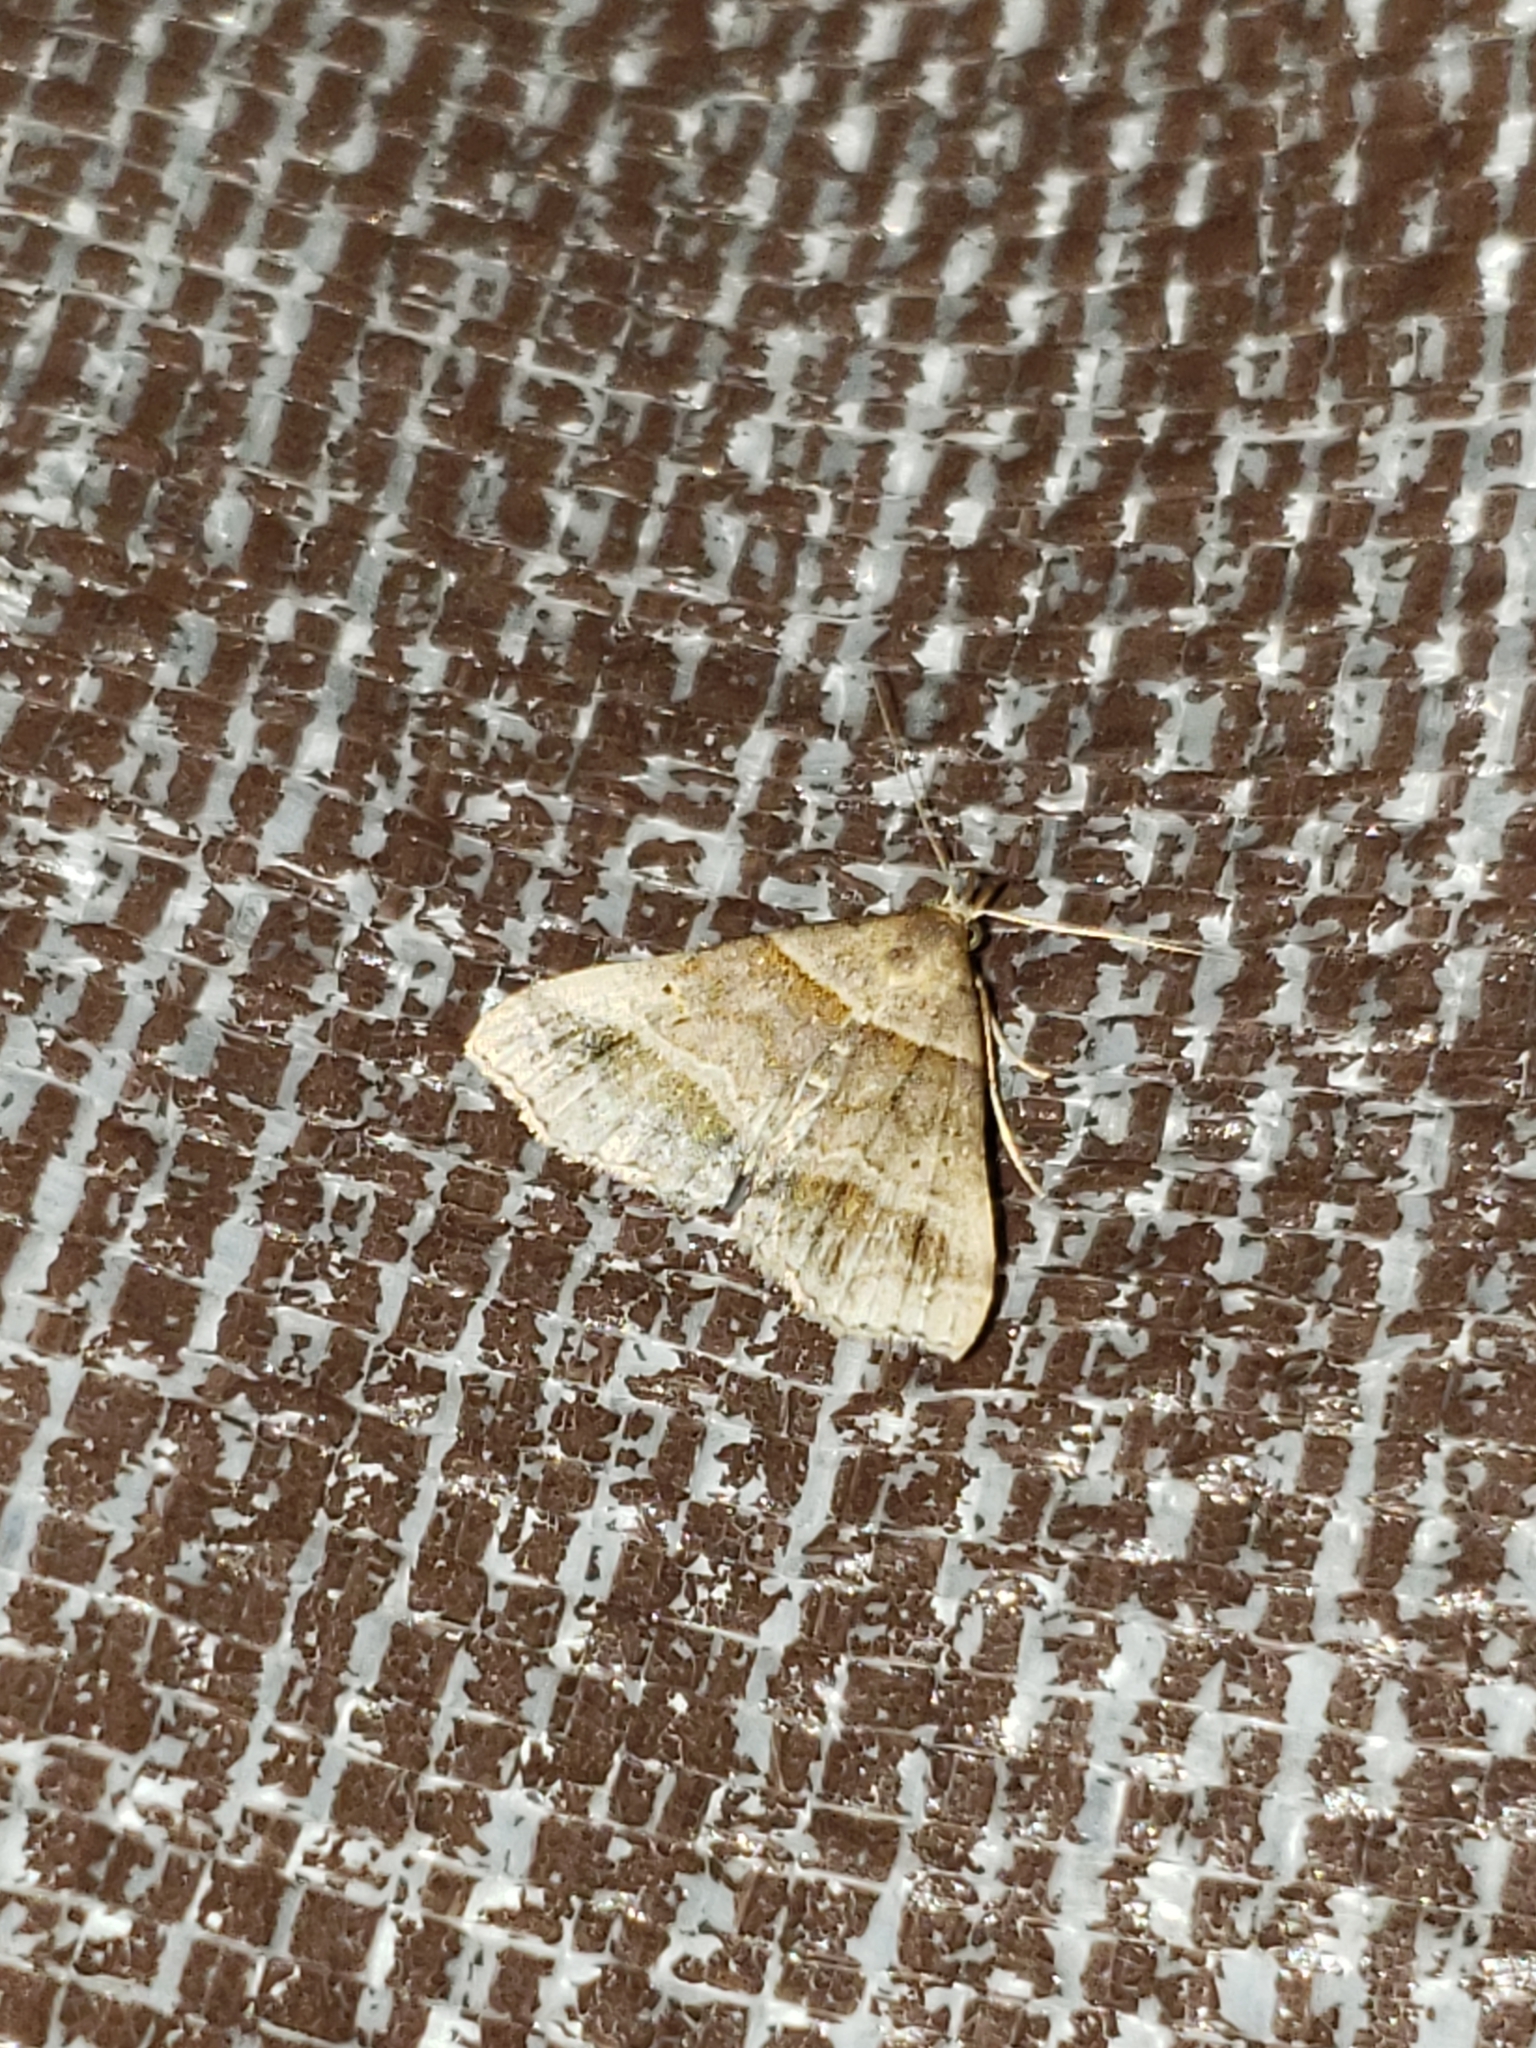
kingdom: Animalia
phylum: Arthropoda
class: Insecta
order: Lepidoptera
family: Erebidae
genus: Phaeolita
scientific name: Phaeolita pyramusalis
